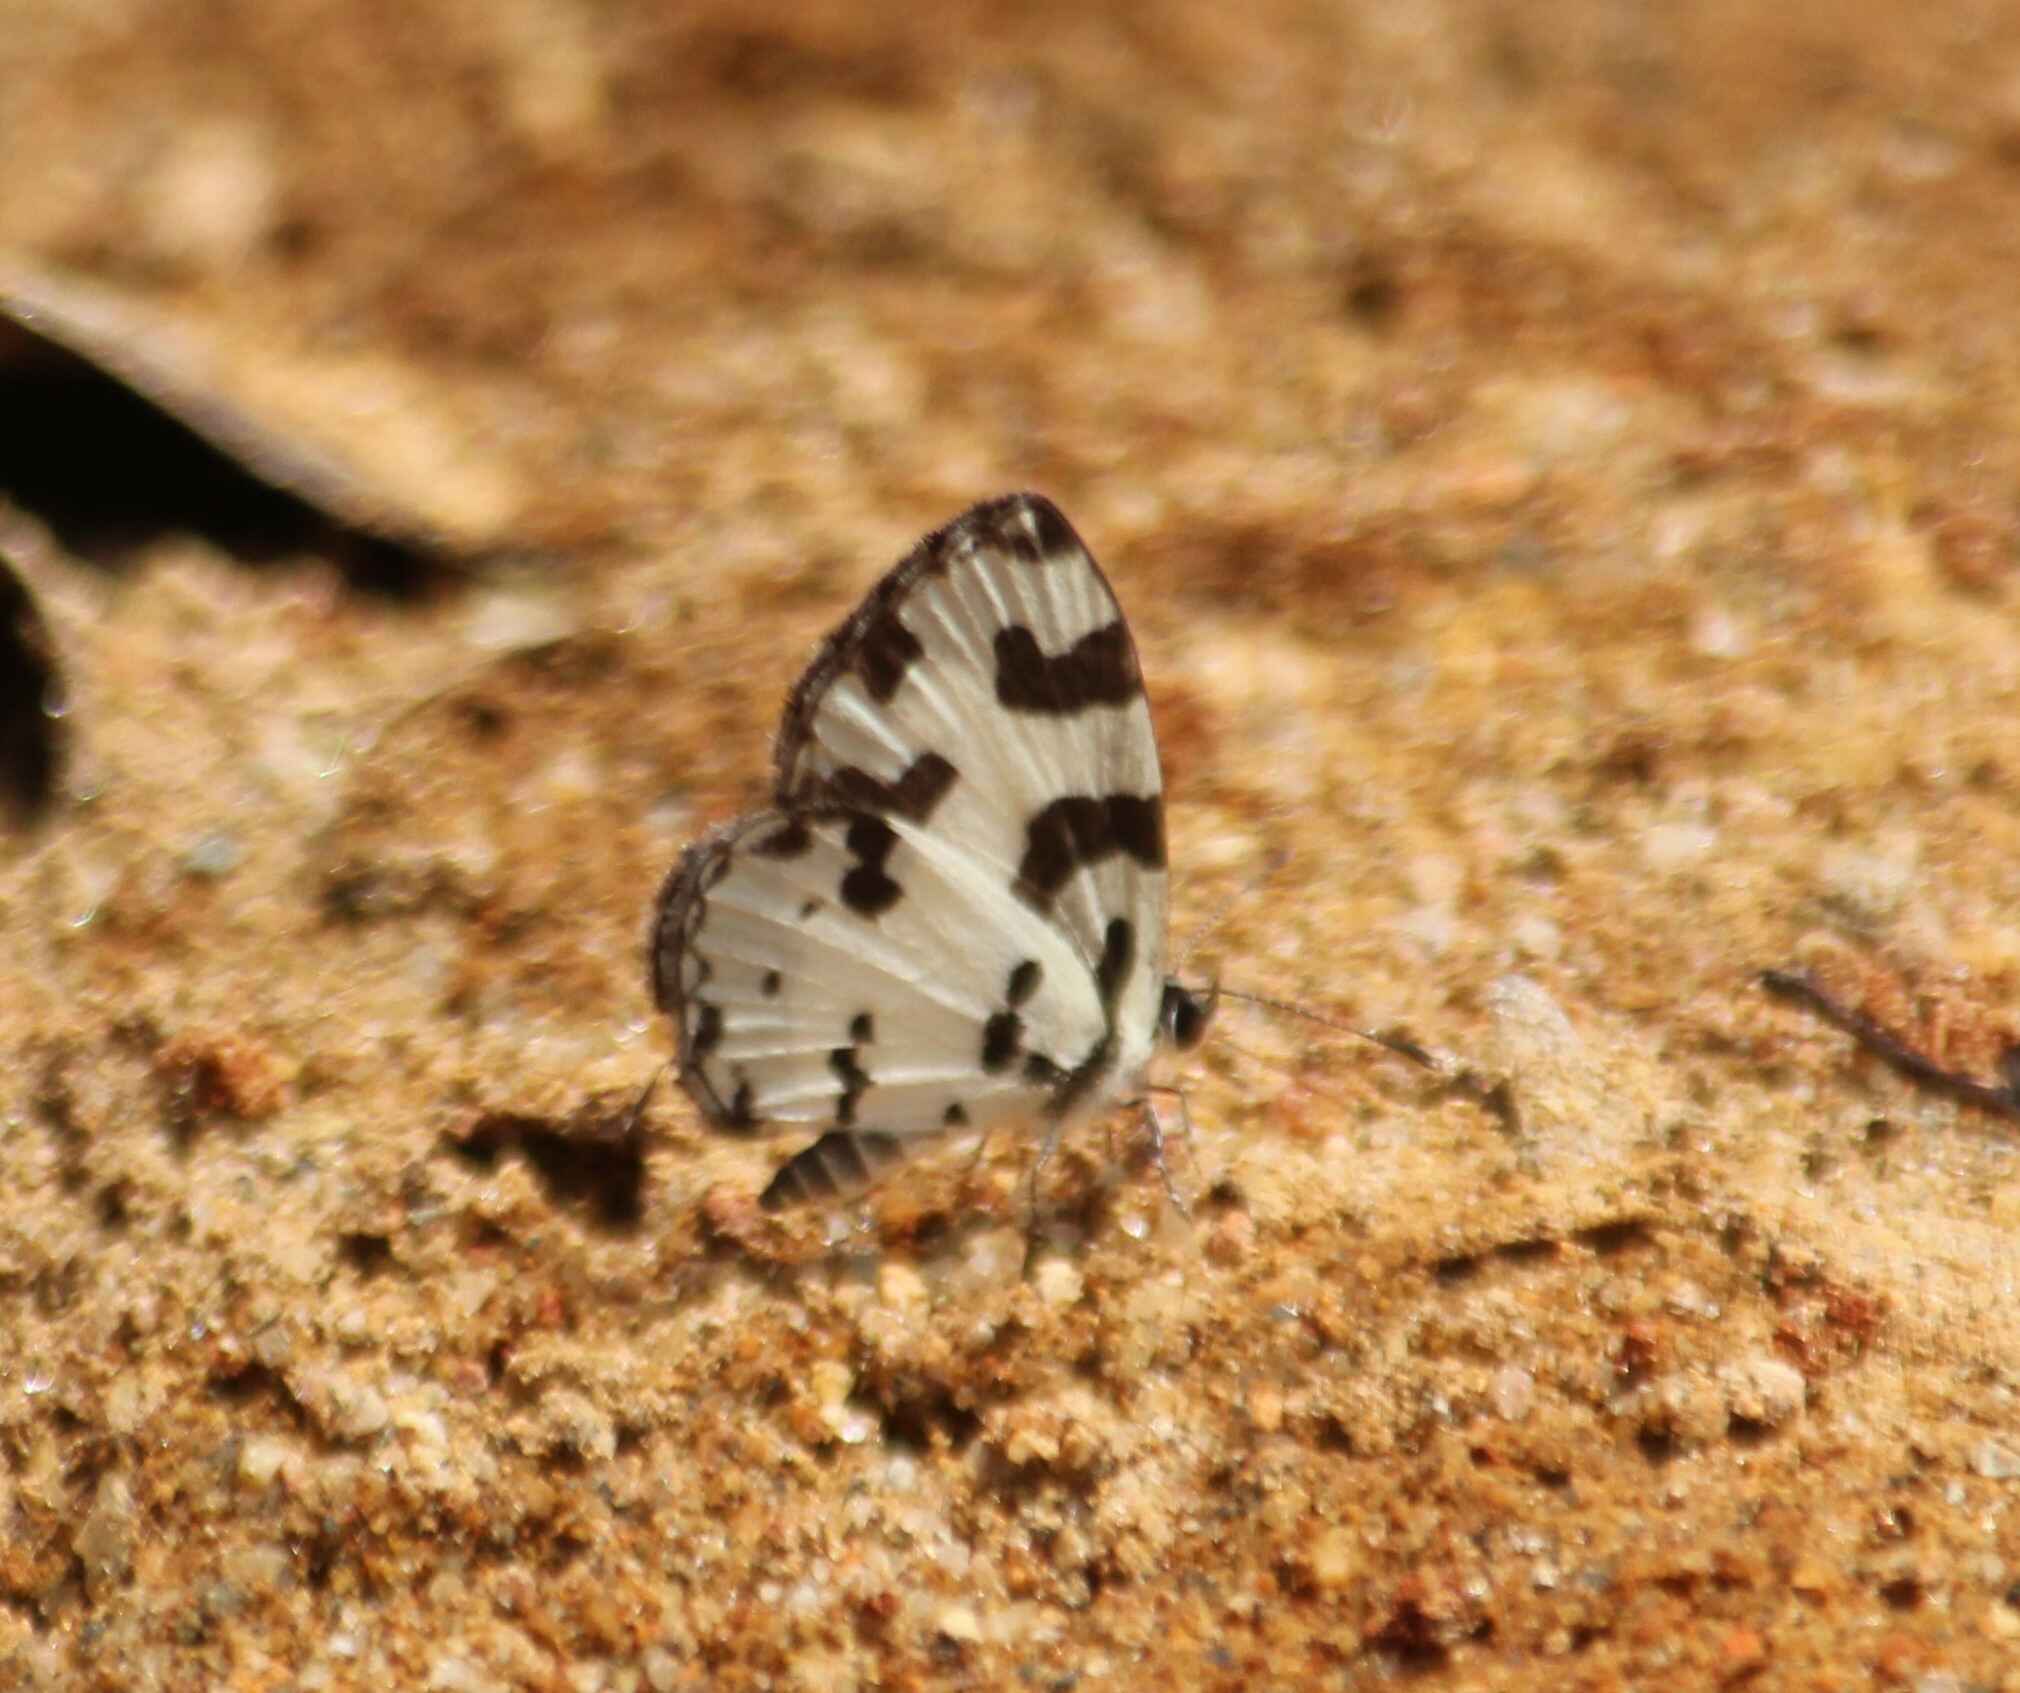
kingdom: Animalia
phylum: Arthropoda
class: Insecta
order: Lepidoptera
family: Lycaenidae
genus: Caleta
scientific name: Caleta decidia
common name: Angled pierrot
